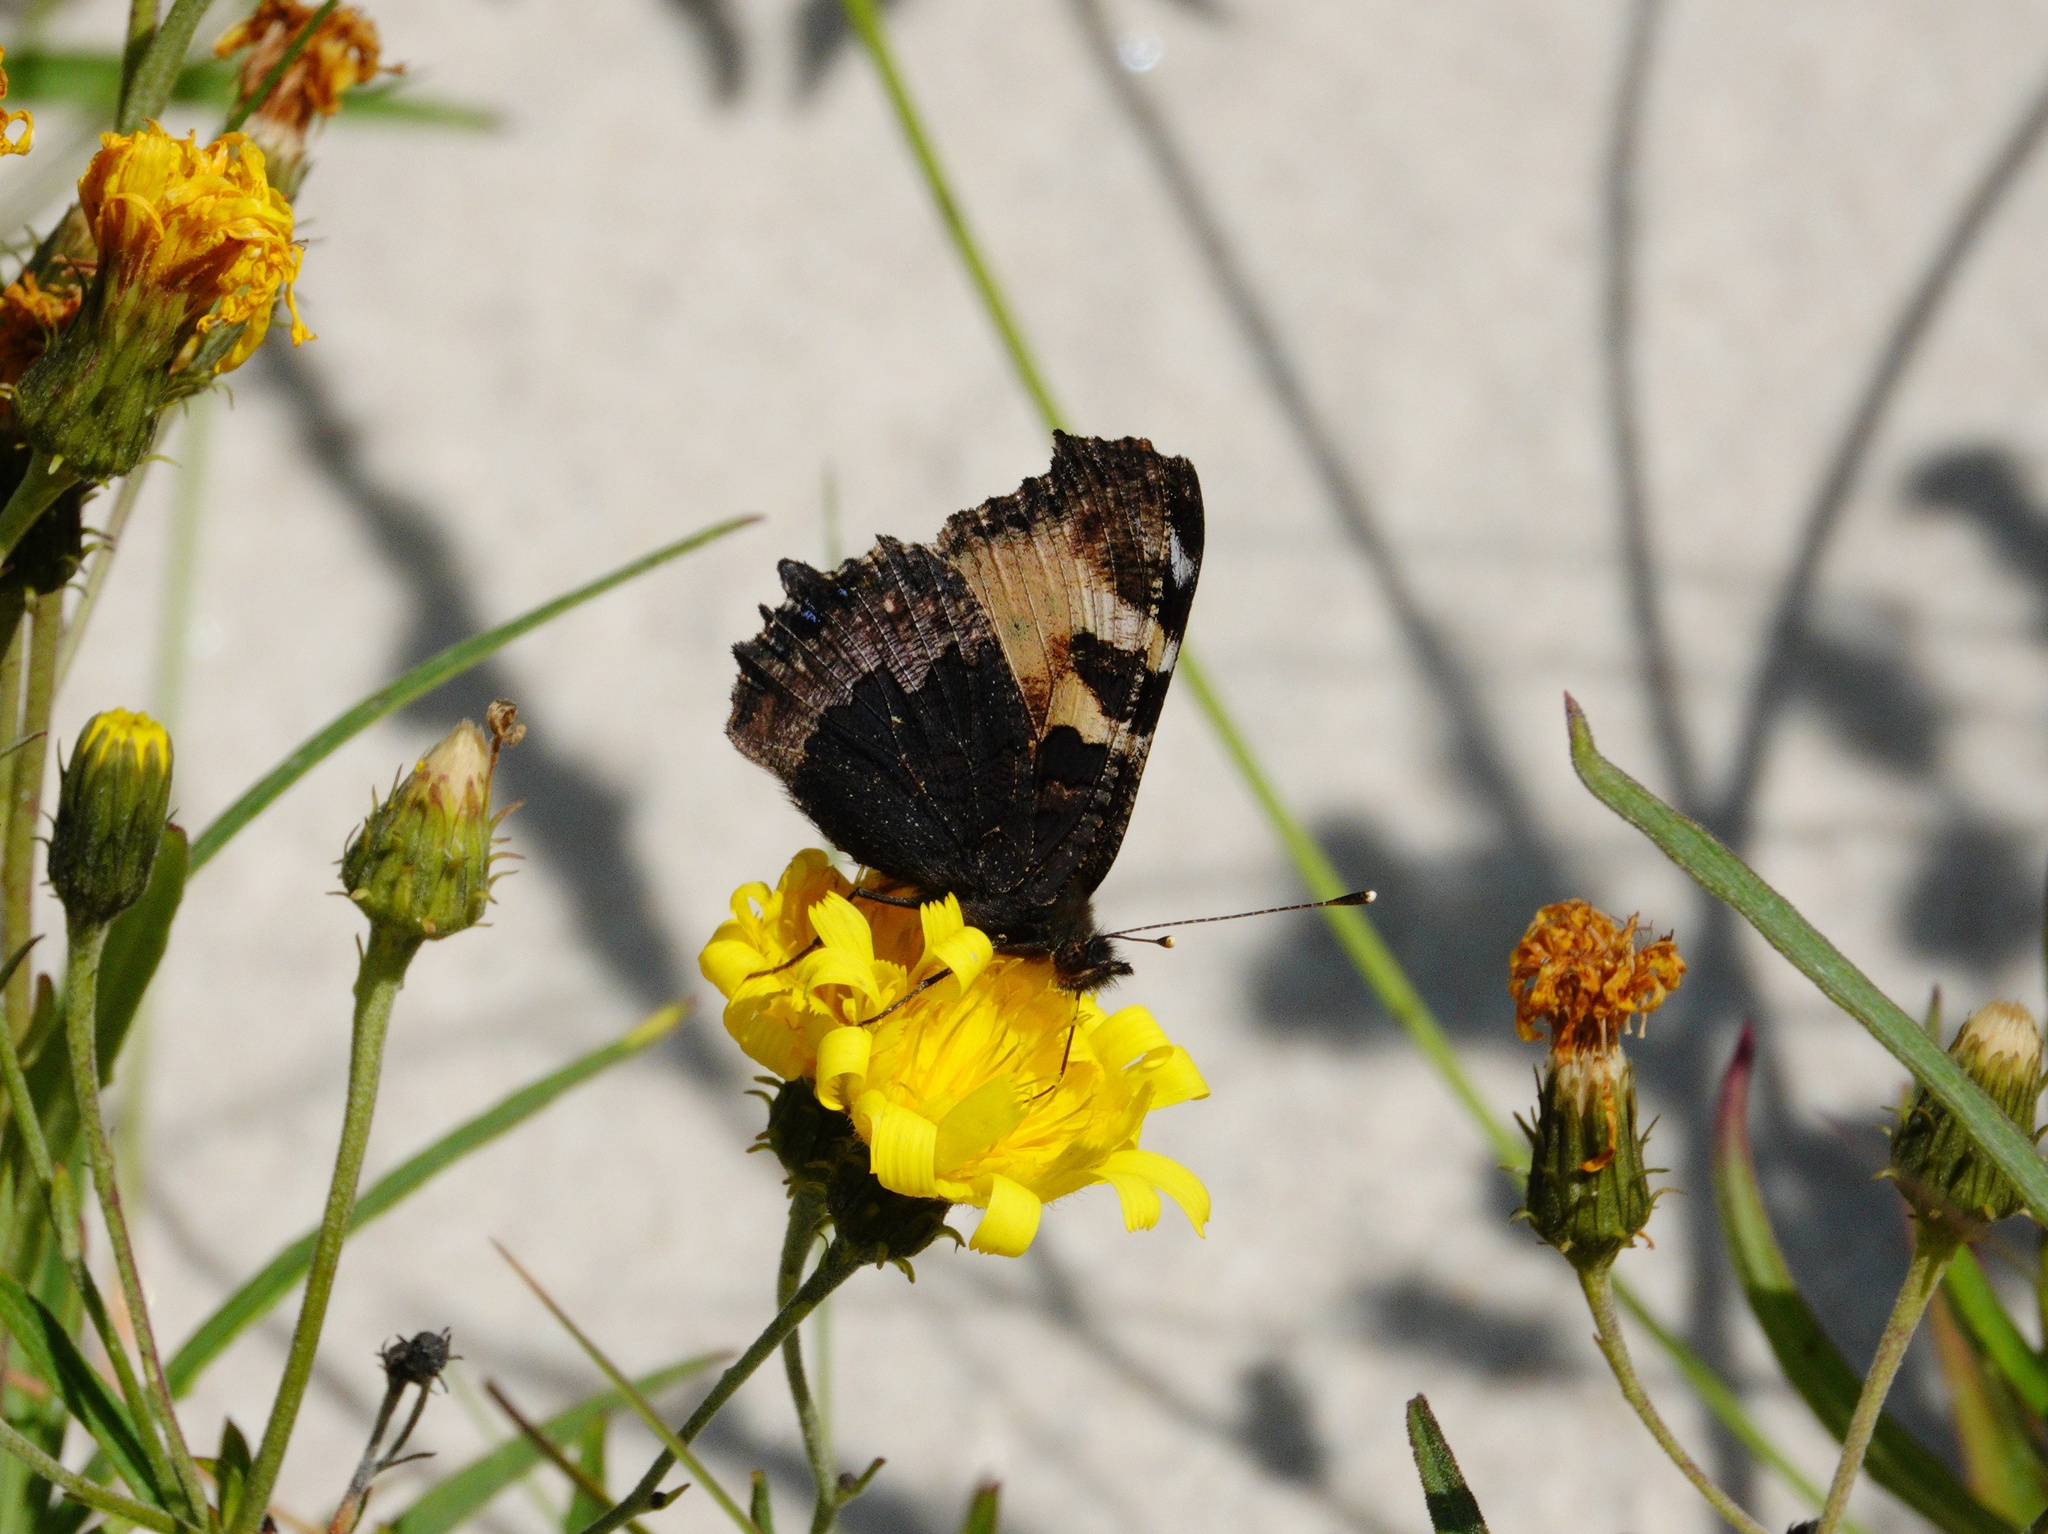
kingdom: Animalia
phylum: Arthropoda
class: Insecta
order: Lepidoptera
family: Nymphalidae
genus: Aglais
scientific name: Aglais urticae
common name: Small tortoiseshell
